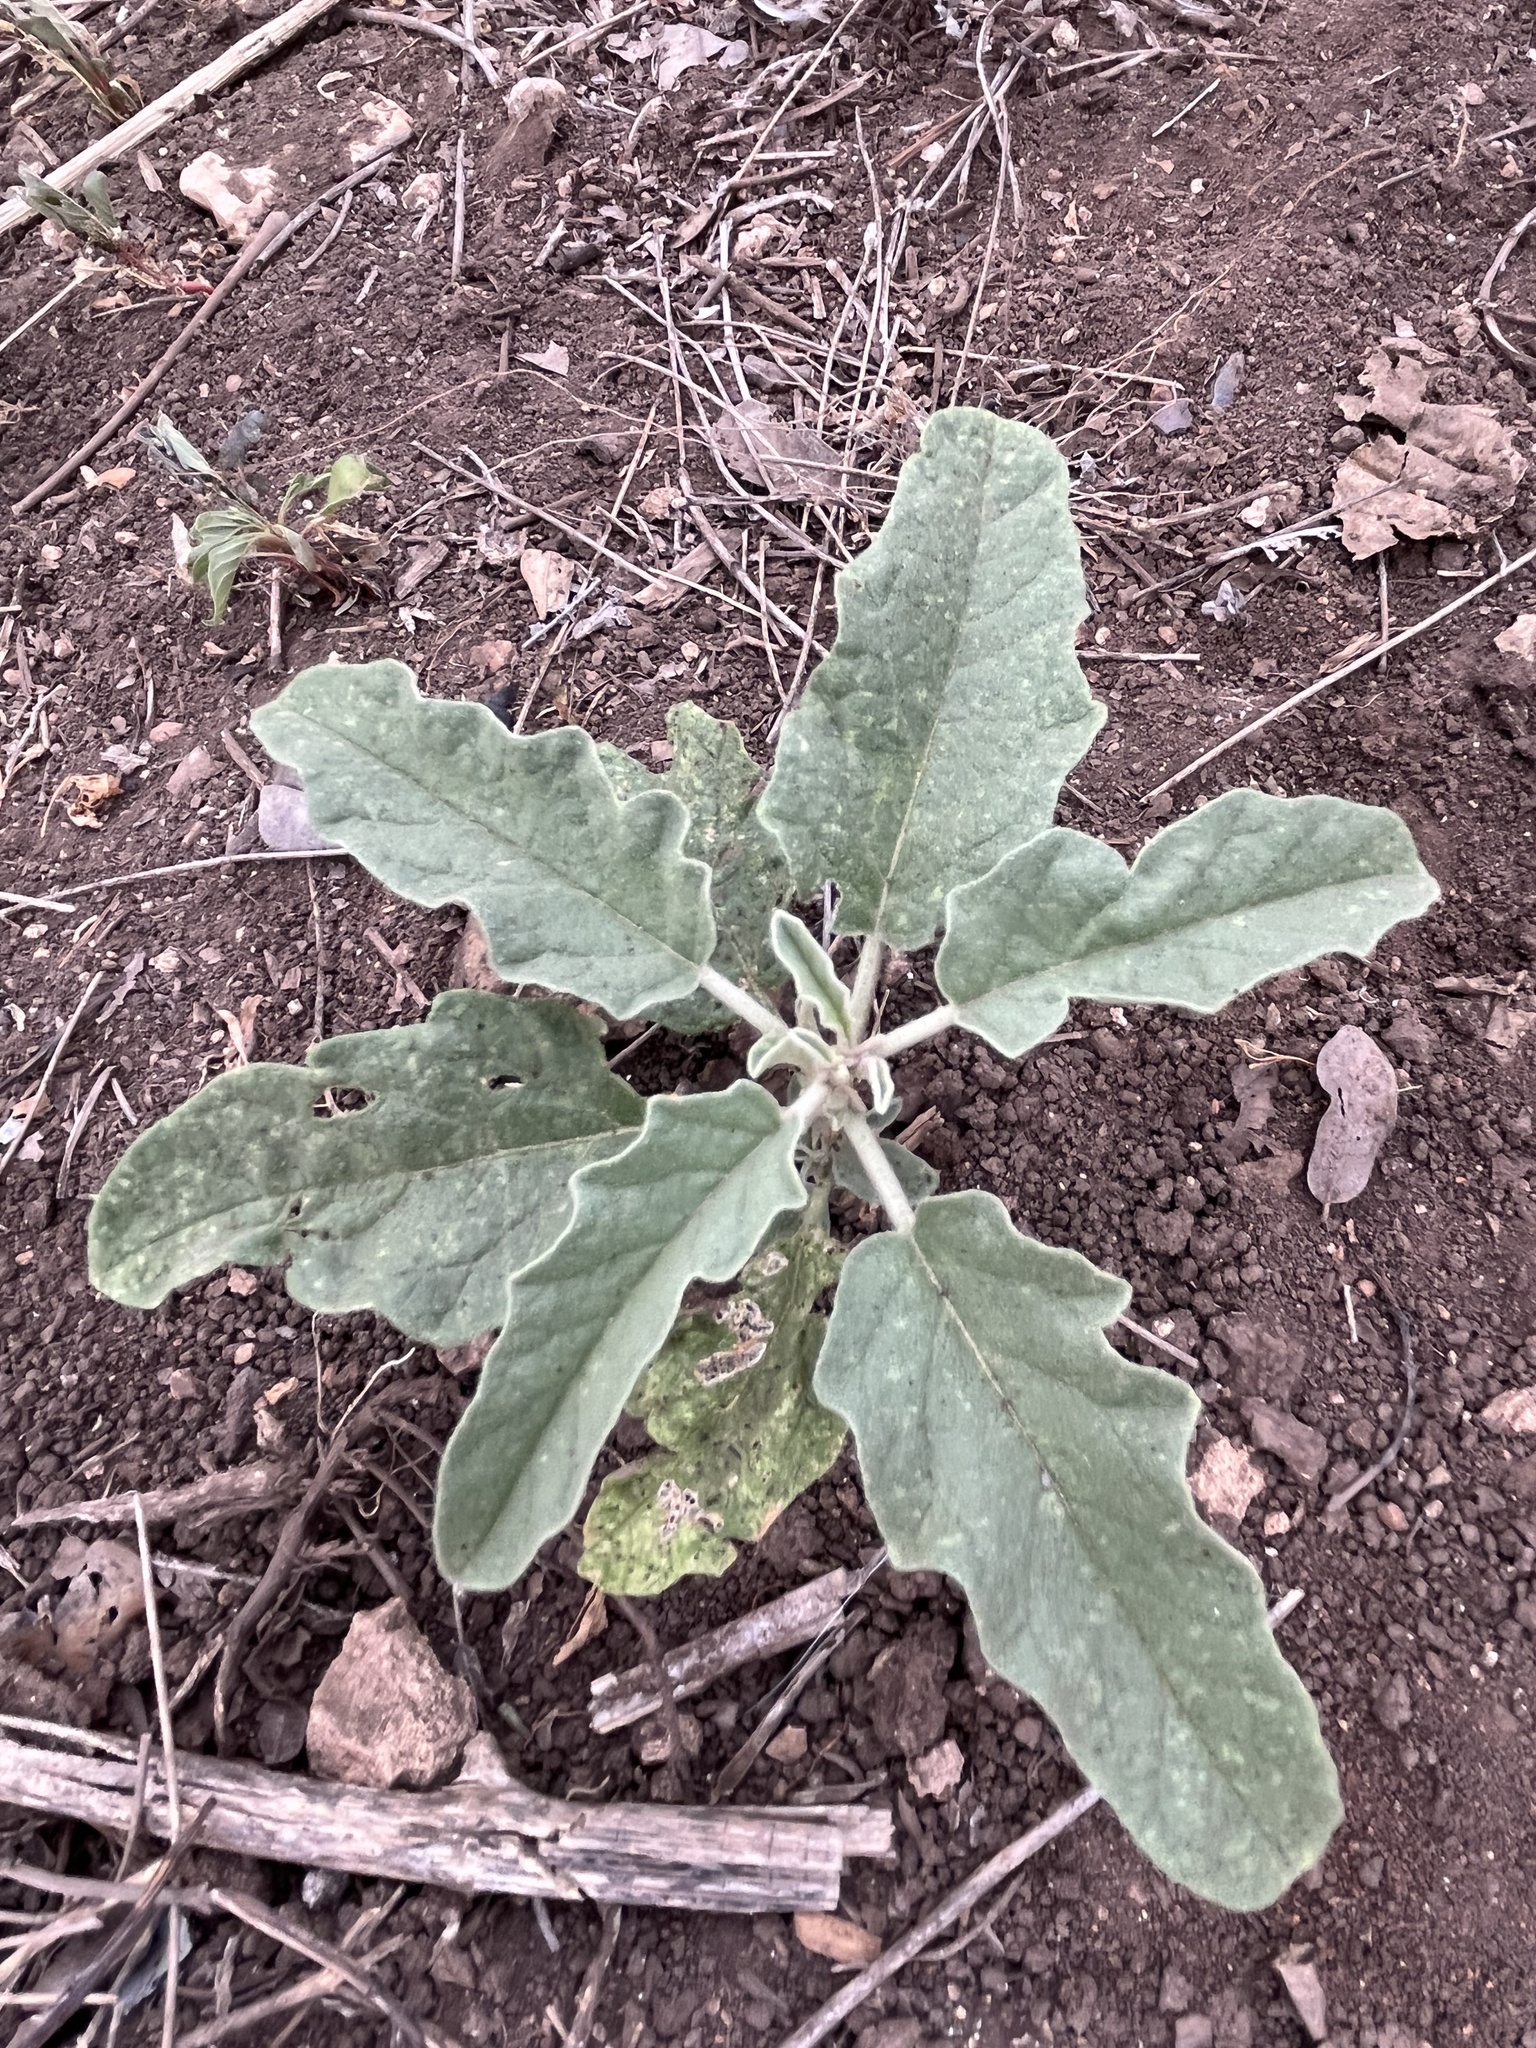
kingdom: Plantae
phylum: Tracheophyta
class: Magnoliopsida
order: Solanales
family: Solanaceae
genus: Solanum
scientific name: Solanum elaeagnifolium
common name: Silverleaf nightshade
